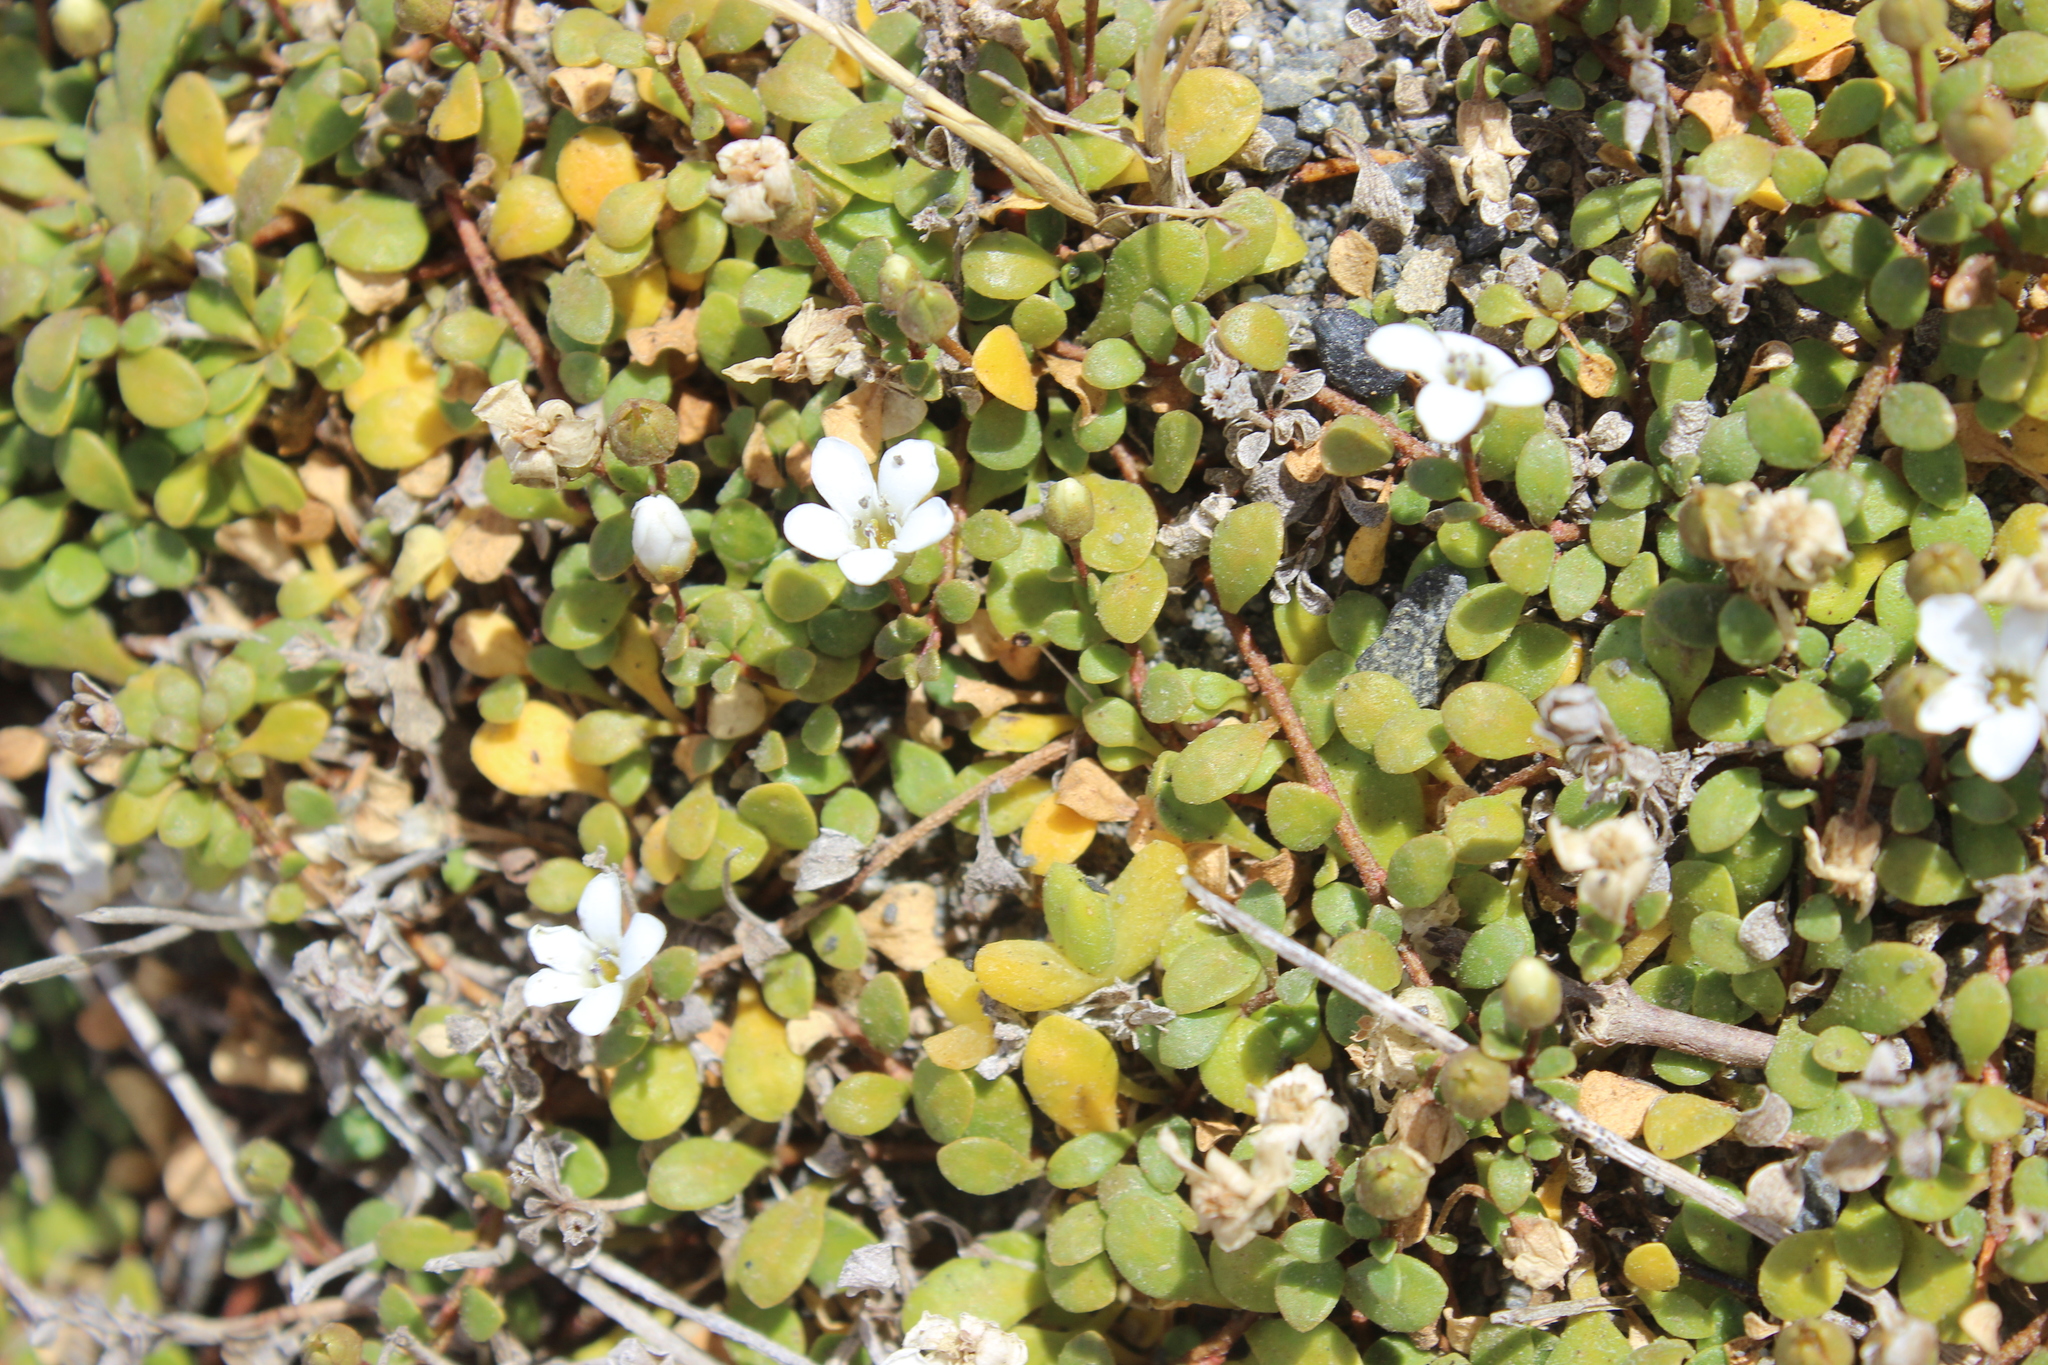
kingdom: Plantae
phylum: Tracheophyta
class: Magnoliopsida
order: Ericales
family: Primulaceae
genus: Samolus
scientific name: Samolus repens
